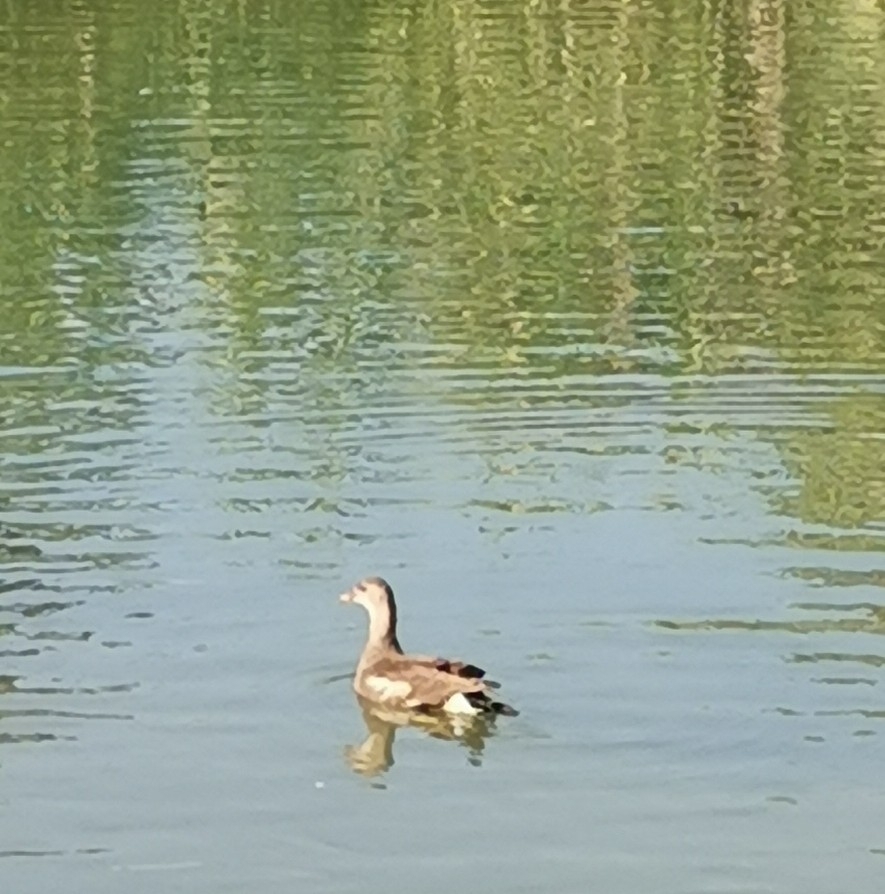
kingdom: Animalia
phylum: Chordata
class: Aves
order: Gruiformes
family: Rallidae
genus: Gallinula
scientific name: Gallinula chloropus
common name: Common moorhen
